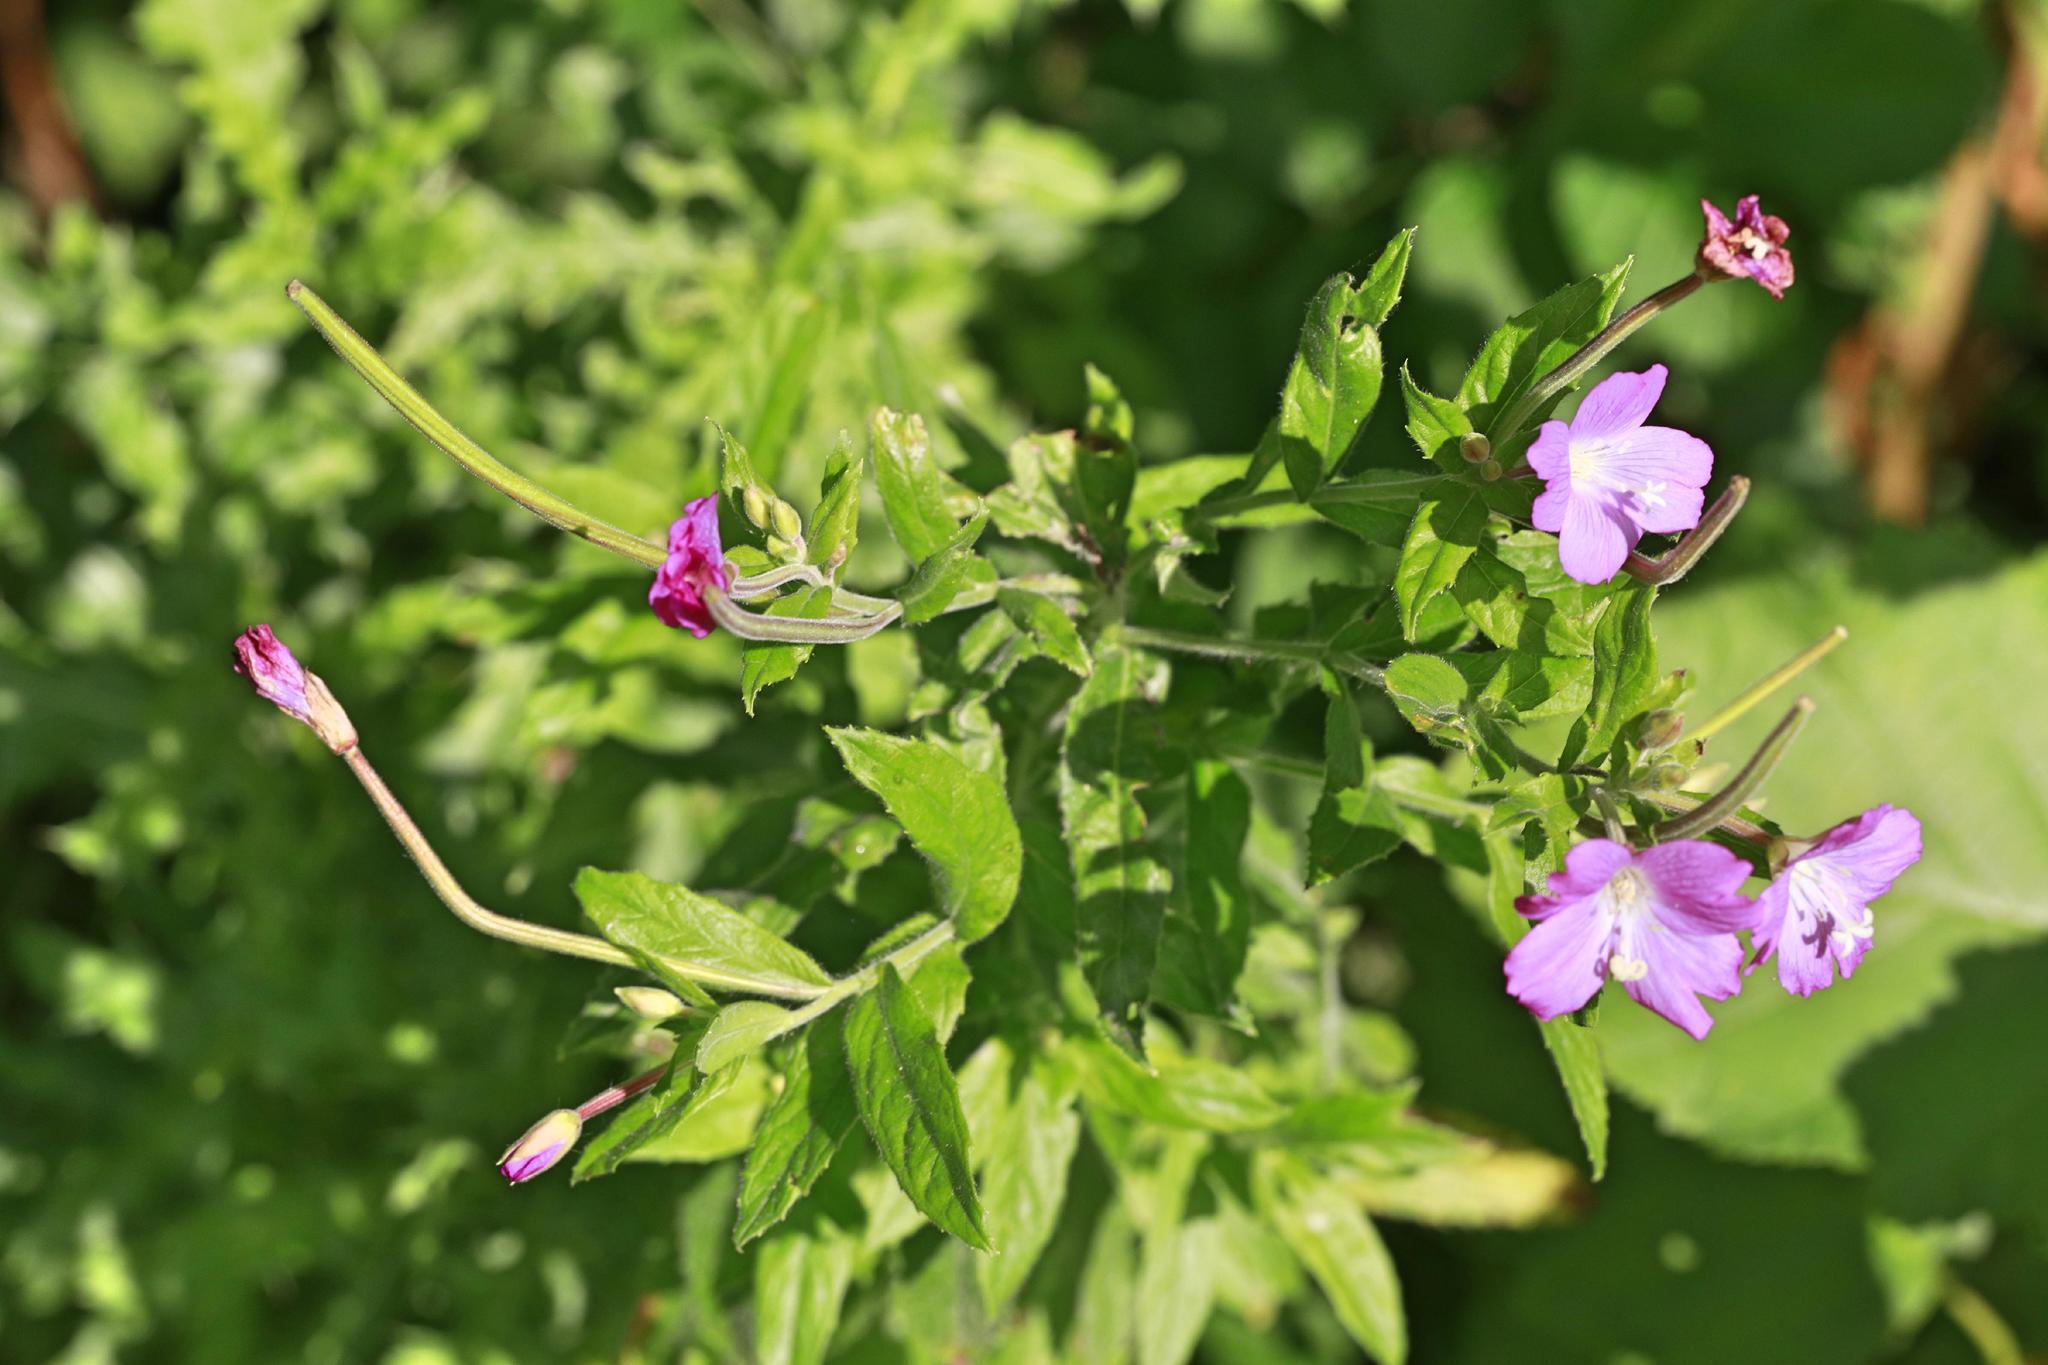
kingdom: Plantae
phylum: Tracheophyta
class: Magnoliopsida
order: Myrtales
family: Onagraceae
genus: Epilobium
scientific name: Epilobium hirsutum
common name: Great willowherb
